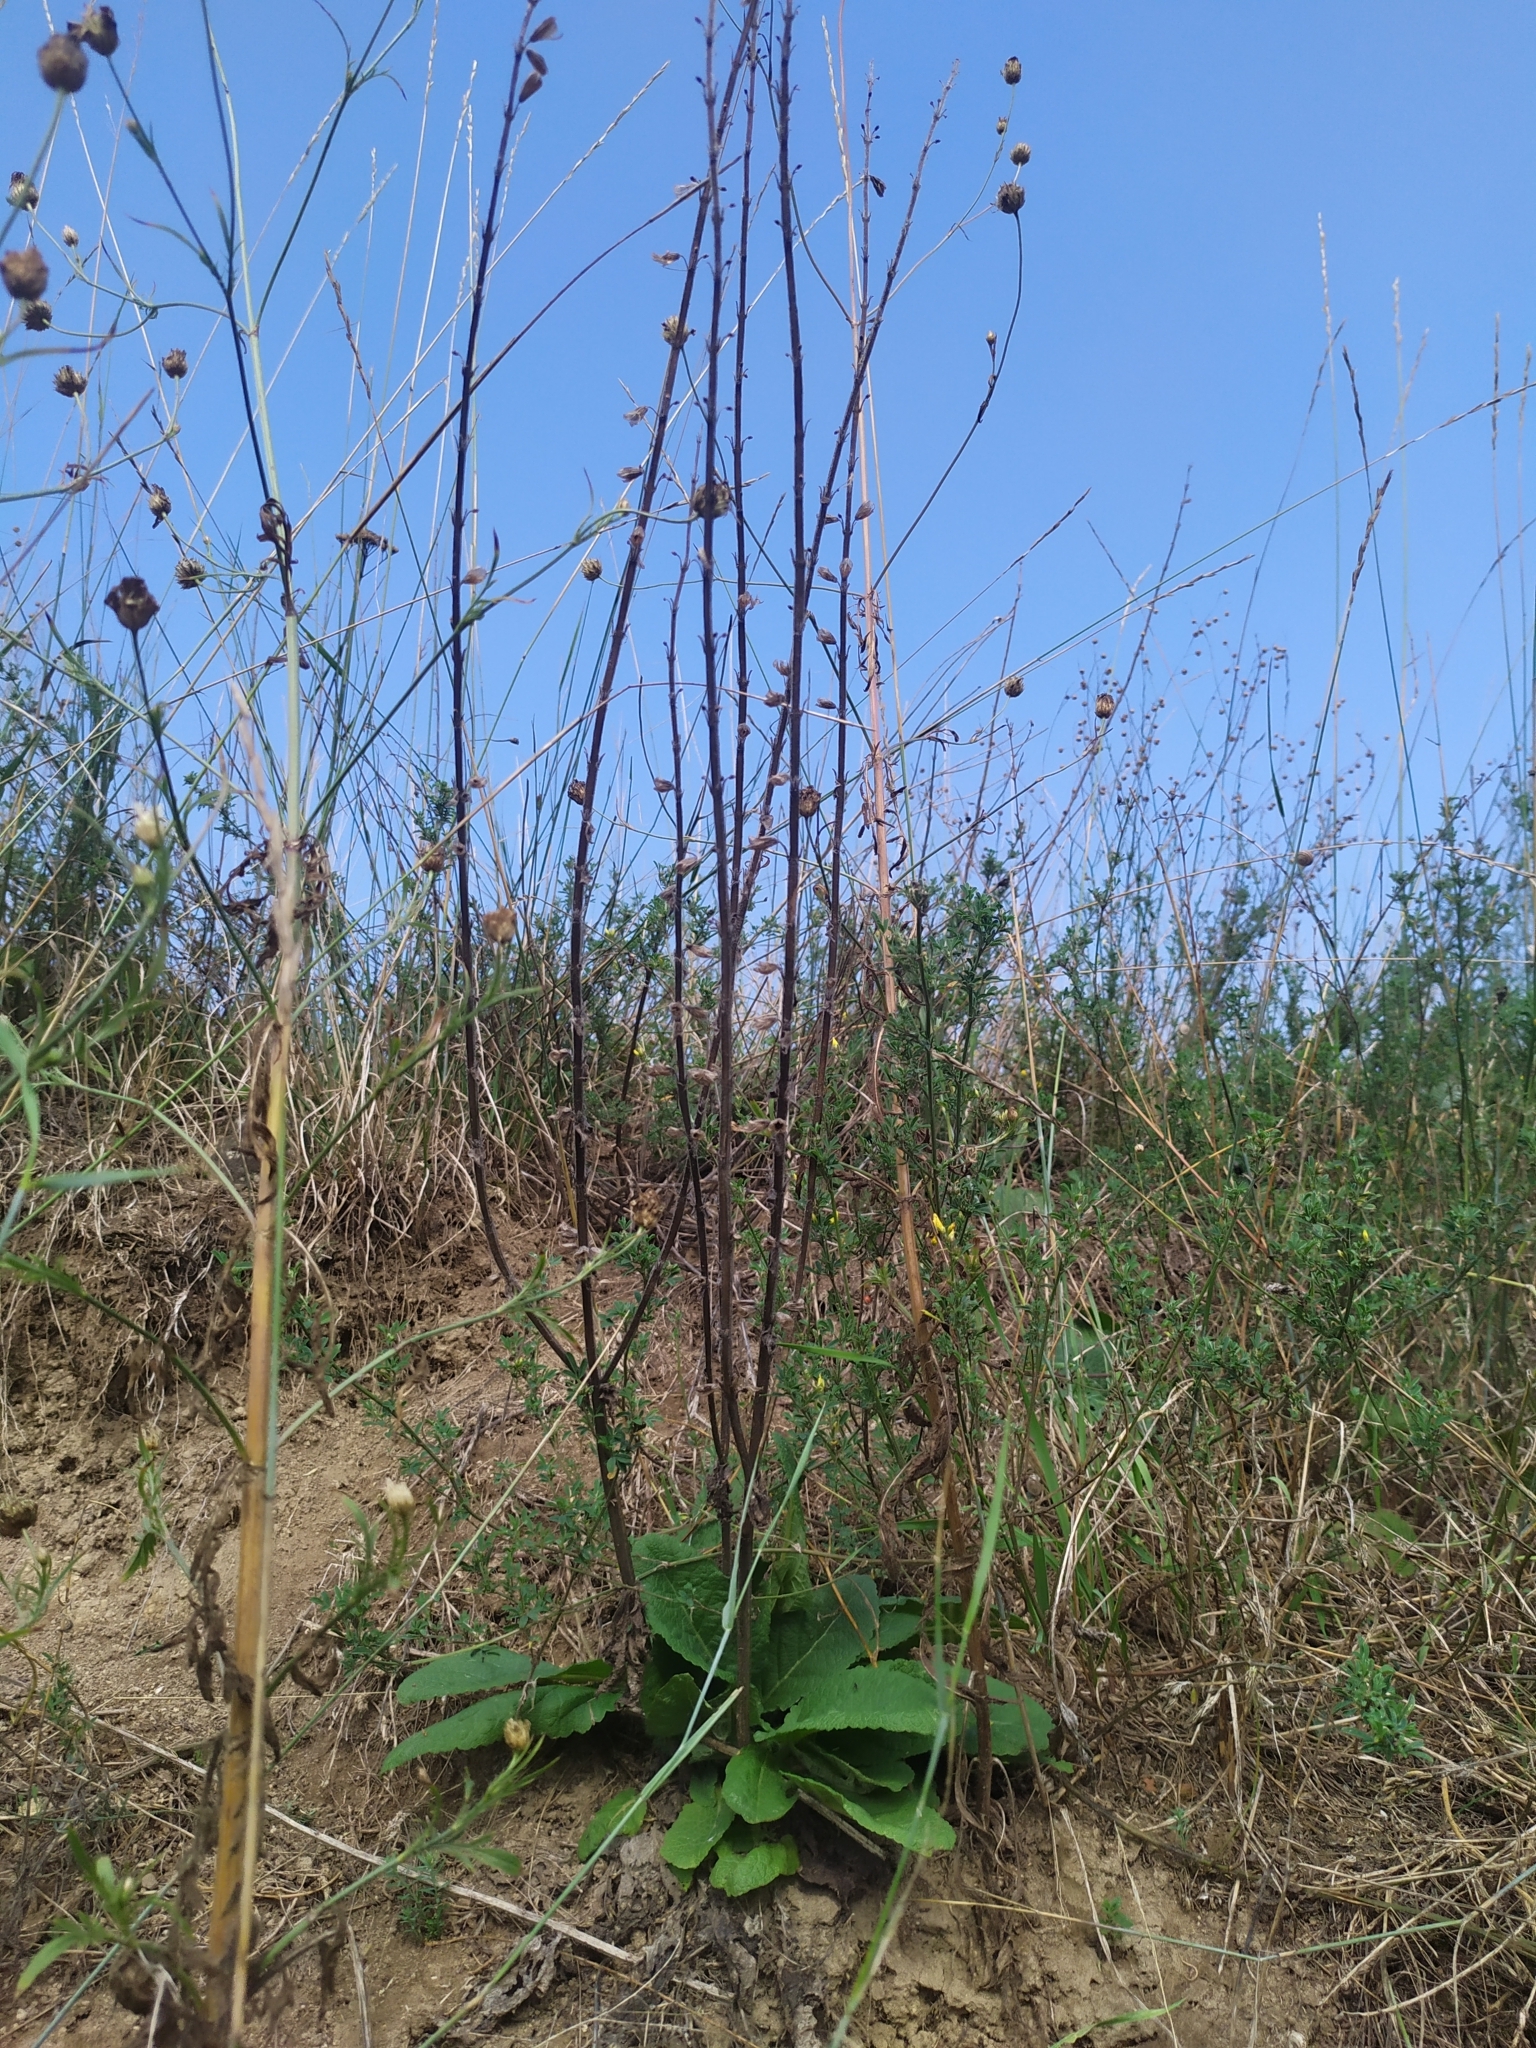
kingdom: Plantae
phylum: Tracheophyta
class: Magnoliopsida
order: Lamiales
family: Lamiaceae
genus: Salvia
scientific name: Salvia austriaca
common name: Austrian sage
